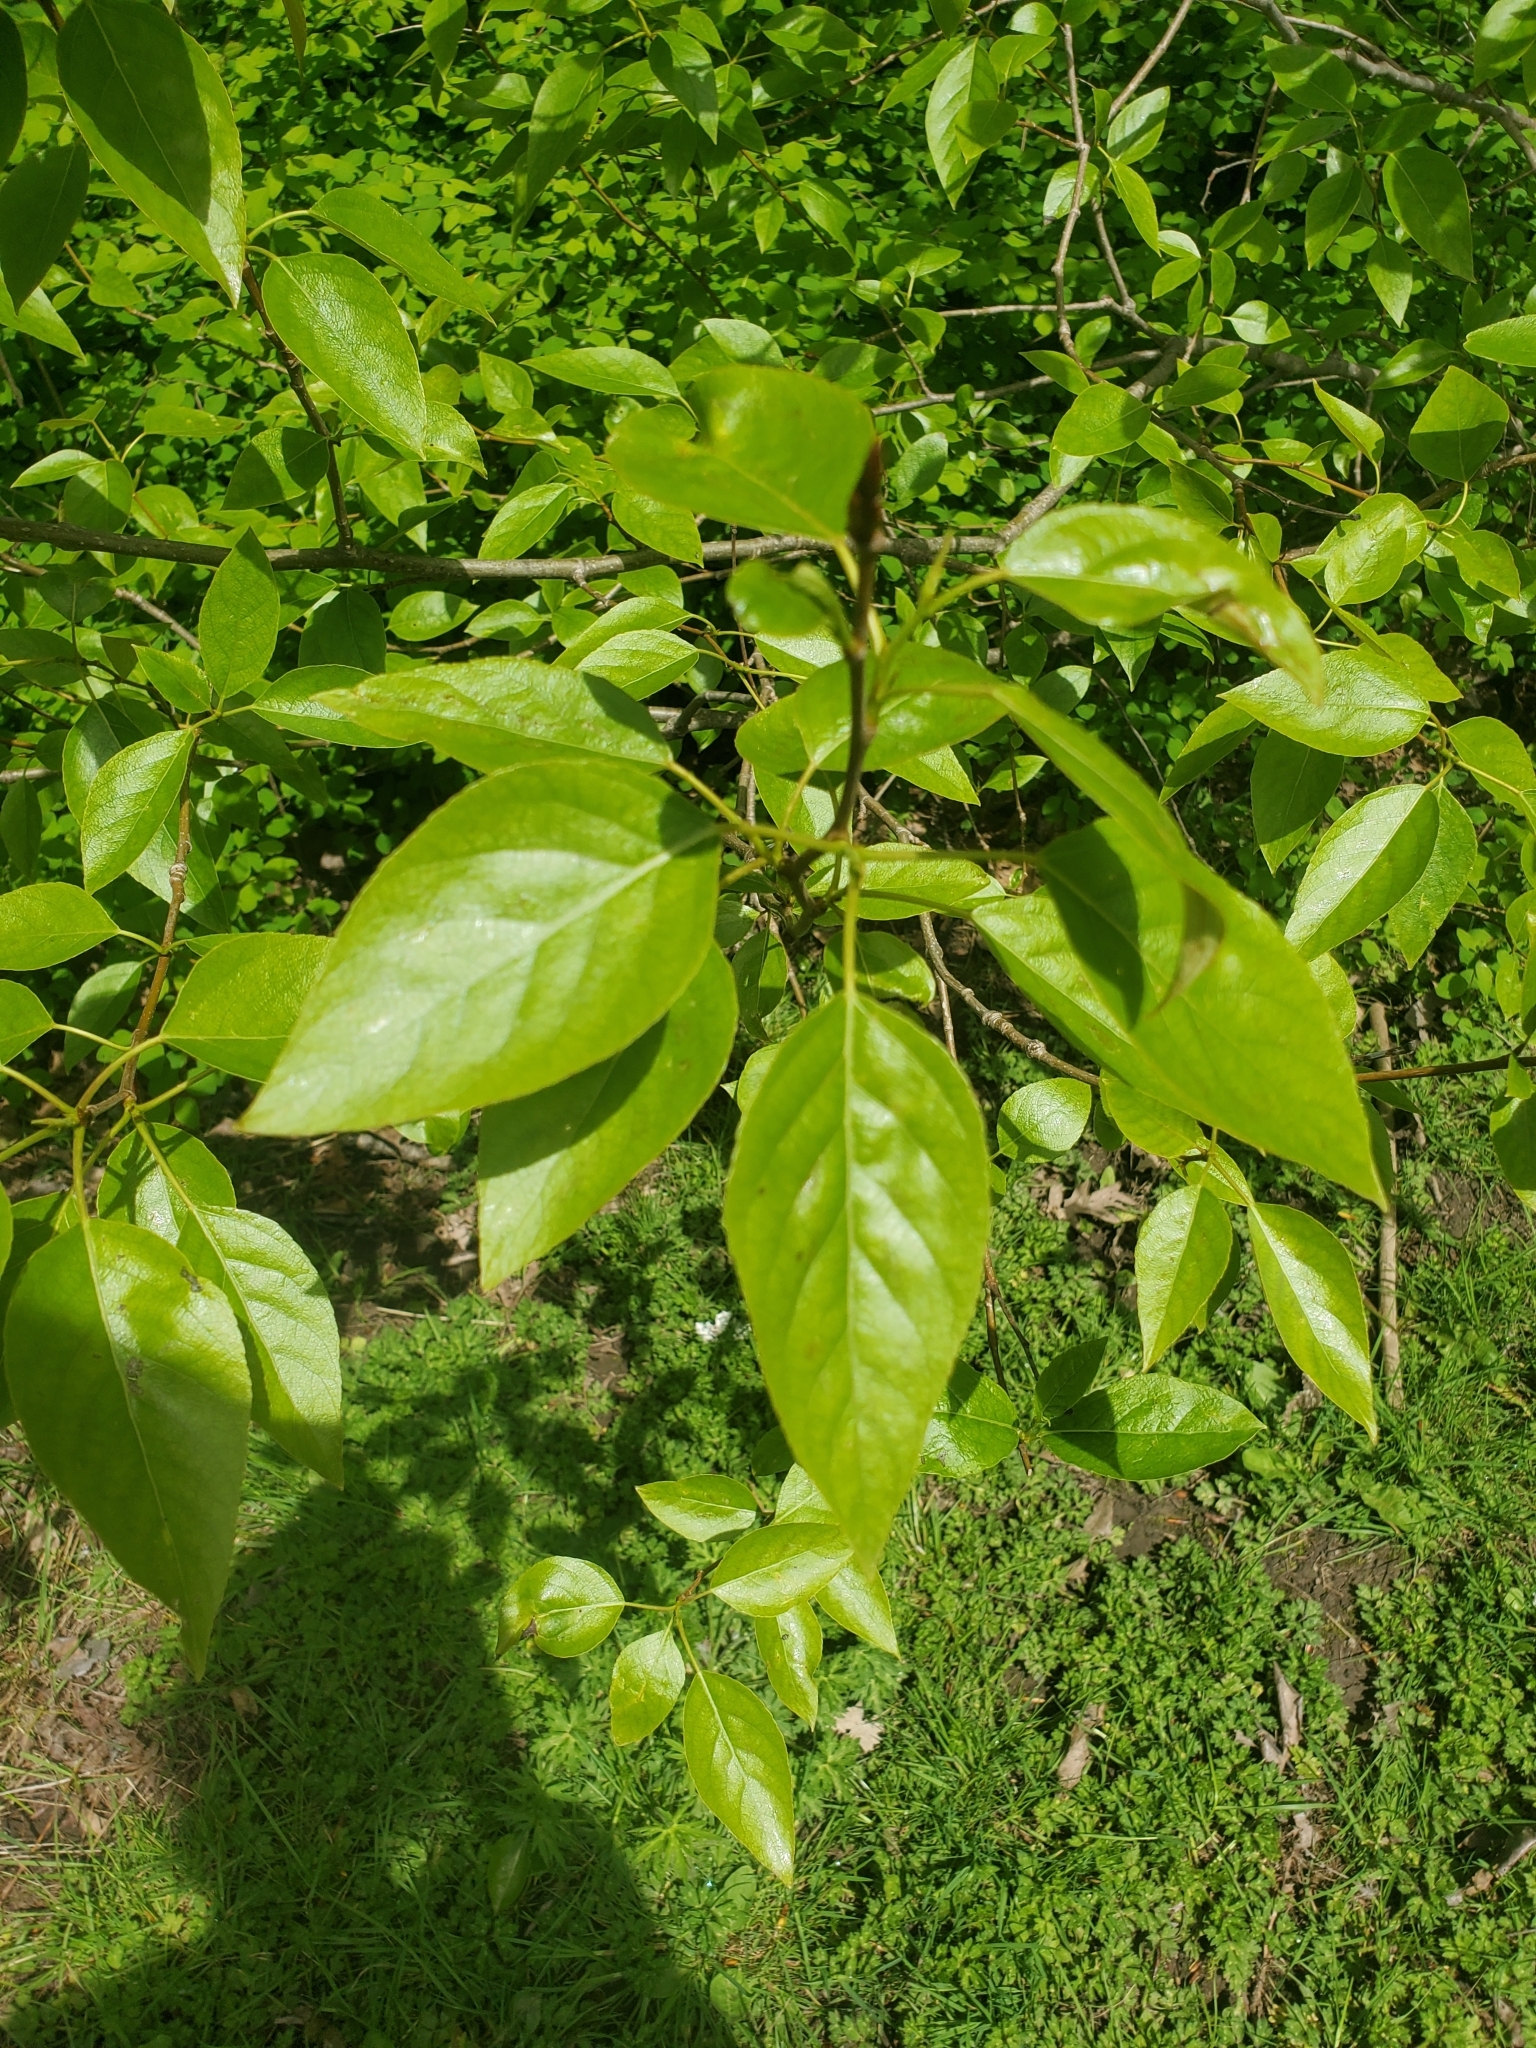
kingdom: Plantae
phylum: Tracheophyta
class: Magnoliopsida
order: Malpighiales
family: Salicaceae
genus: Populus
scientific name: Populus trichocarpa
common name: Black cottonwood
